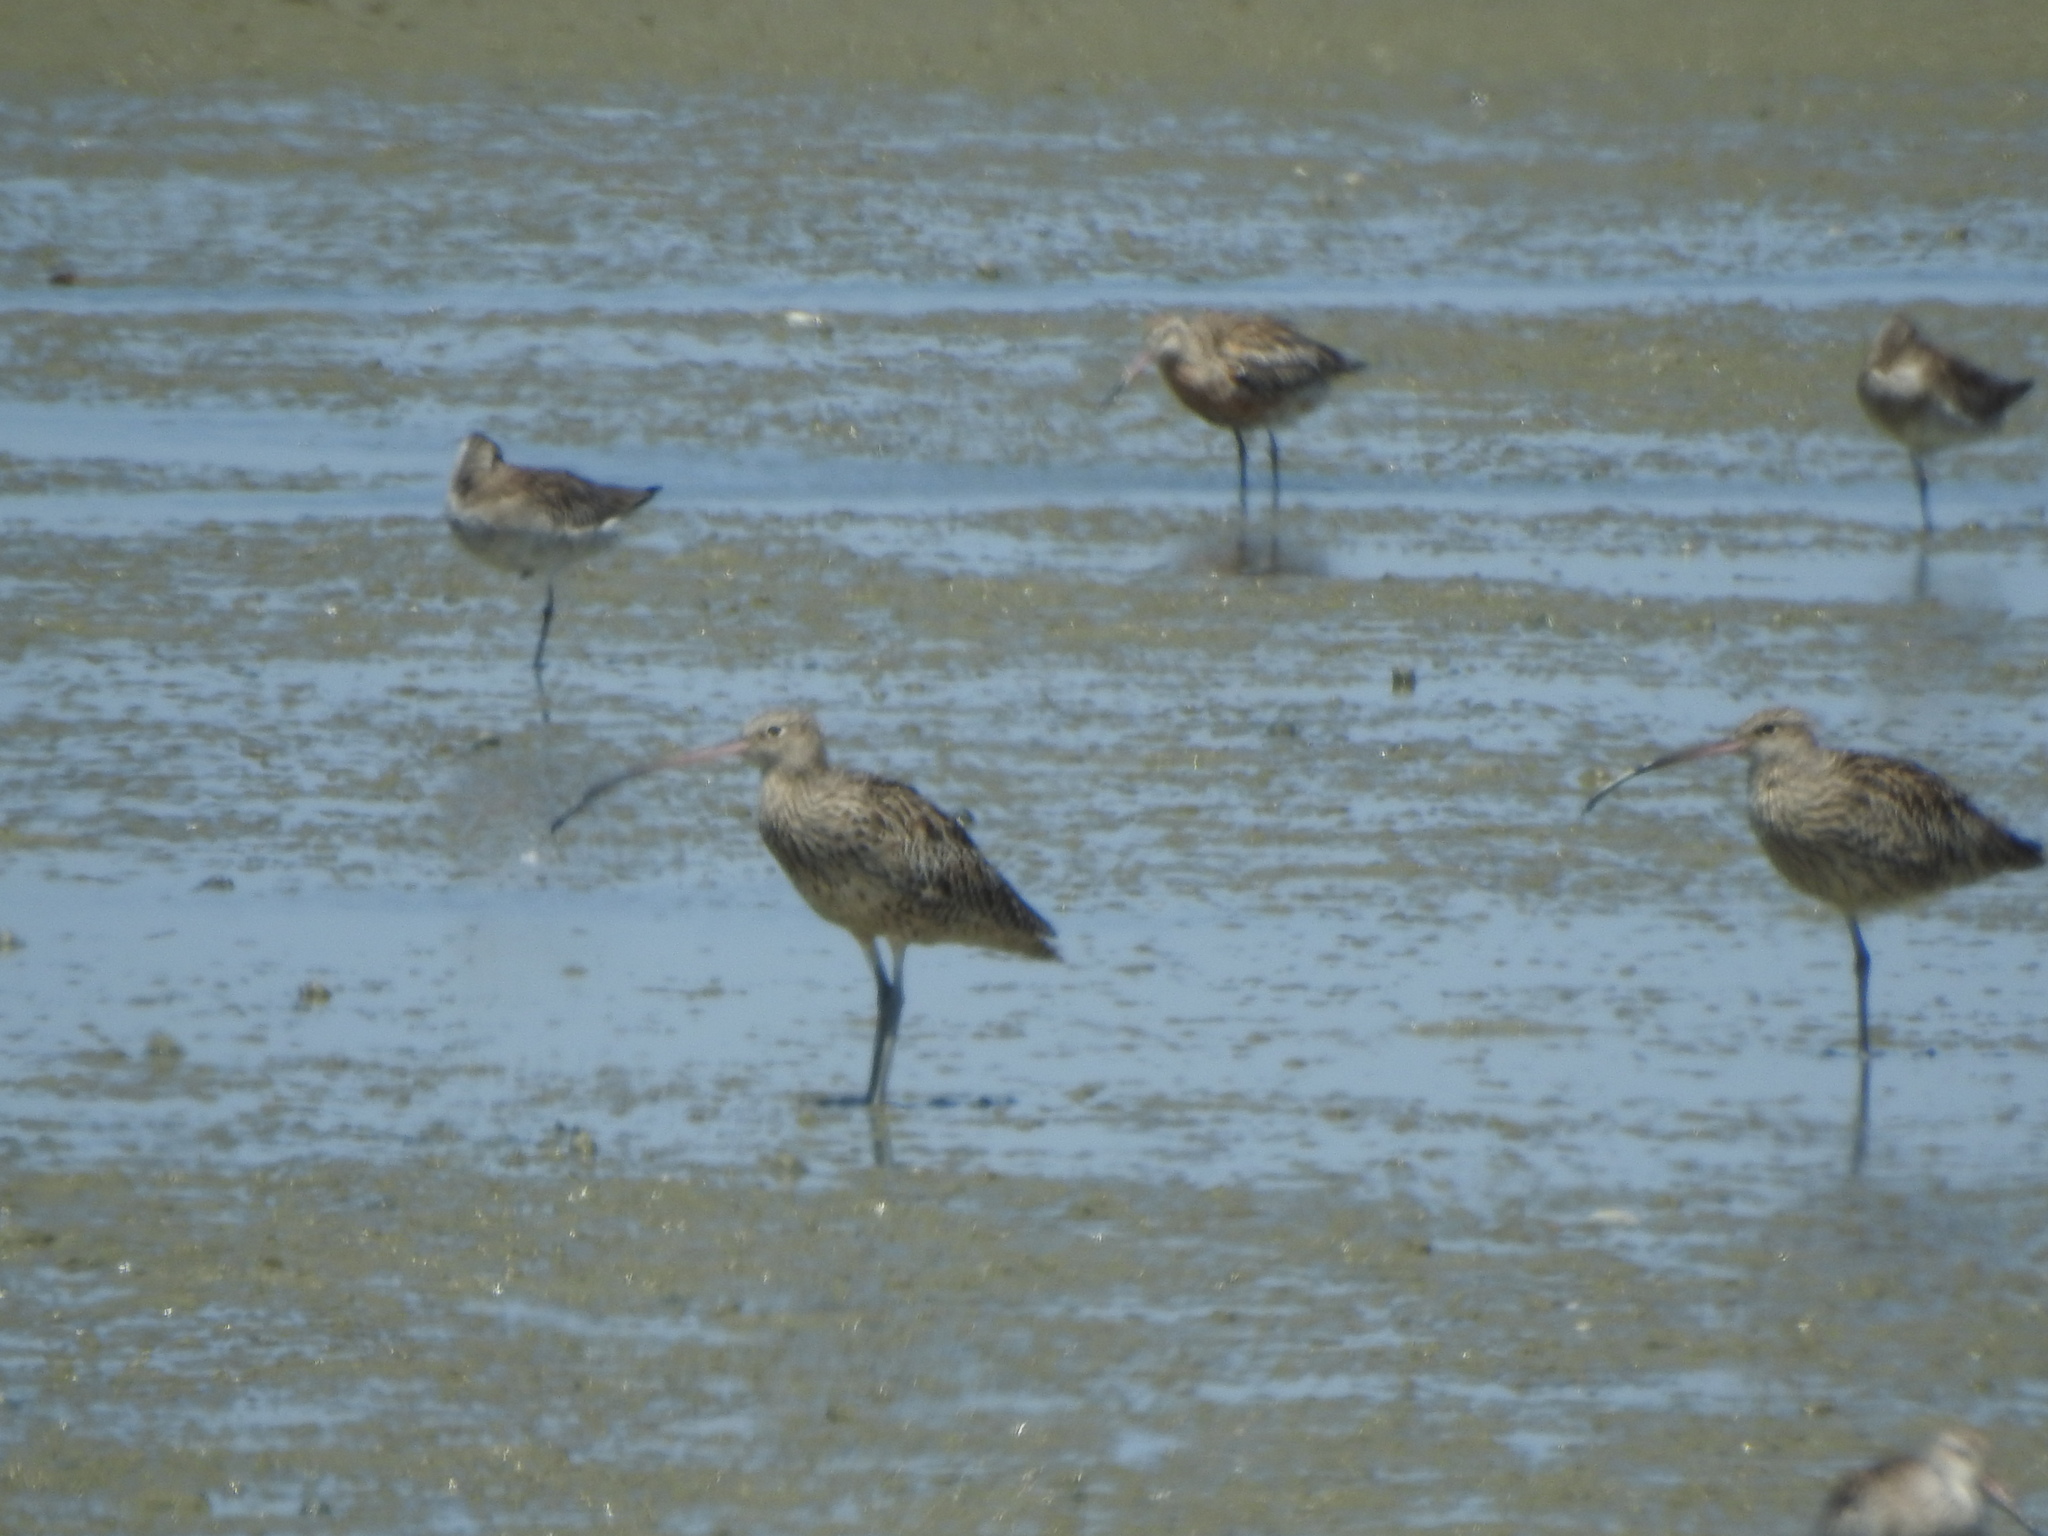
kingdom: Animalia
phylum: Chordata
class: Aves
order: Charadriiformes
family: Scolopacidae
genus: Numenius
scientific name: Numenius madagascariensis
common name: Far eastern curlew
